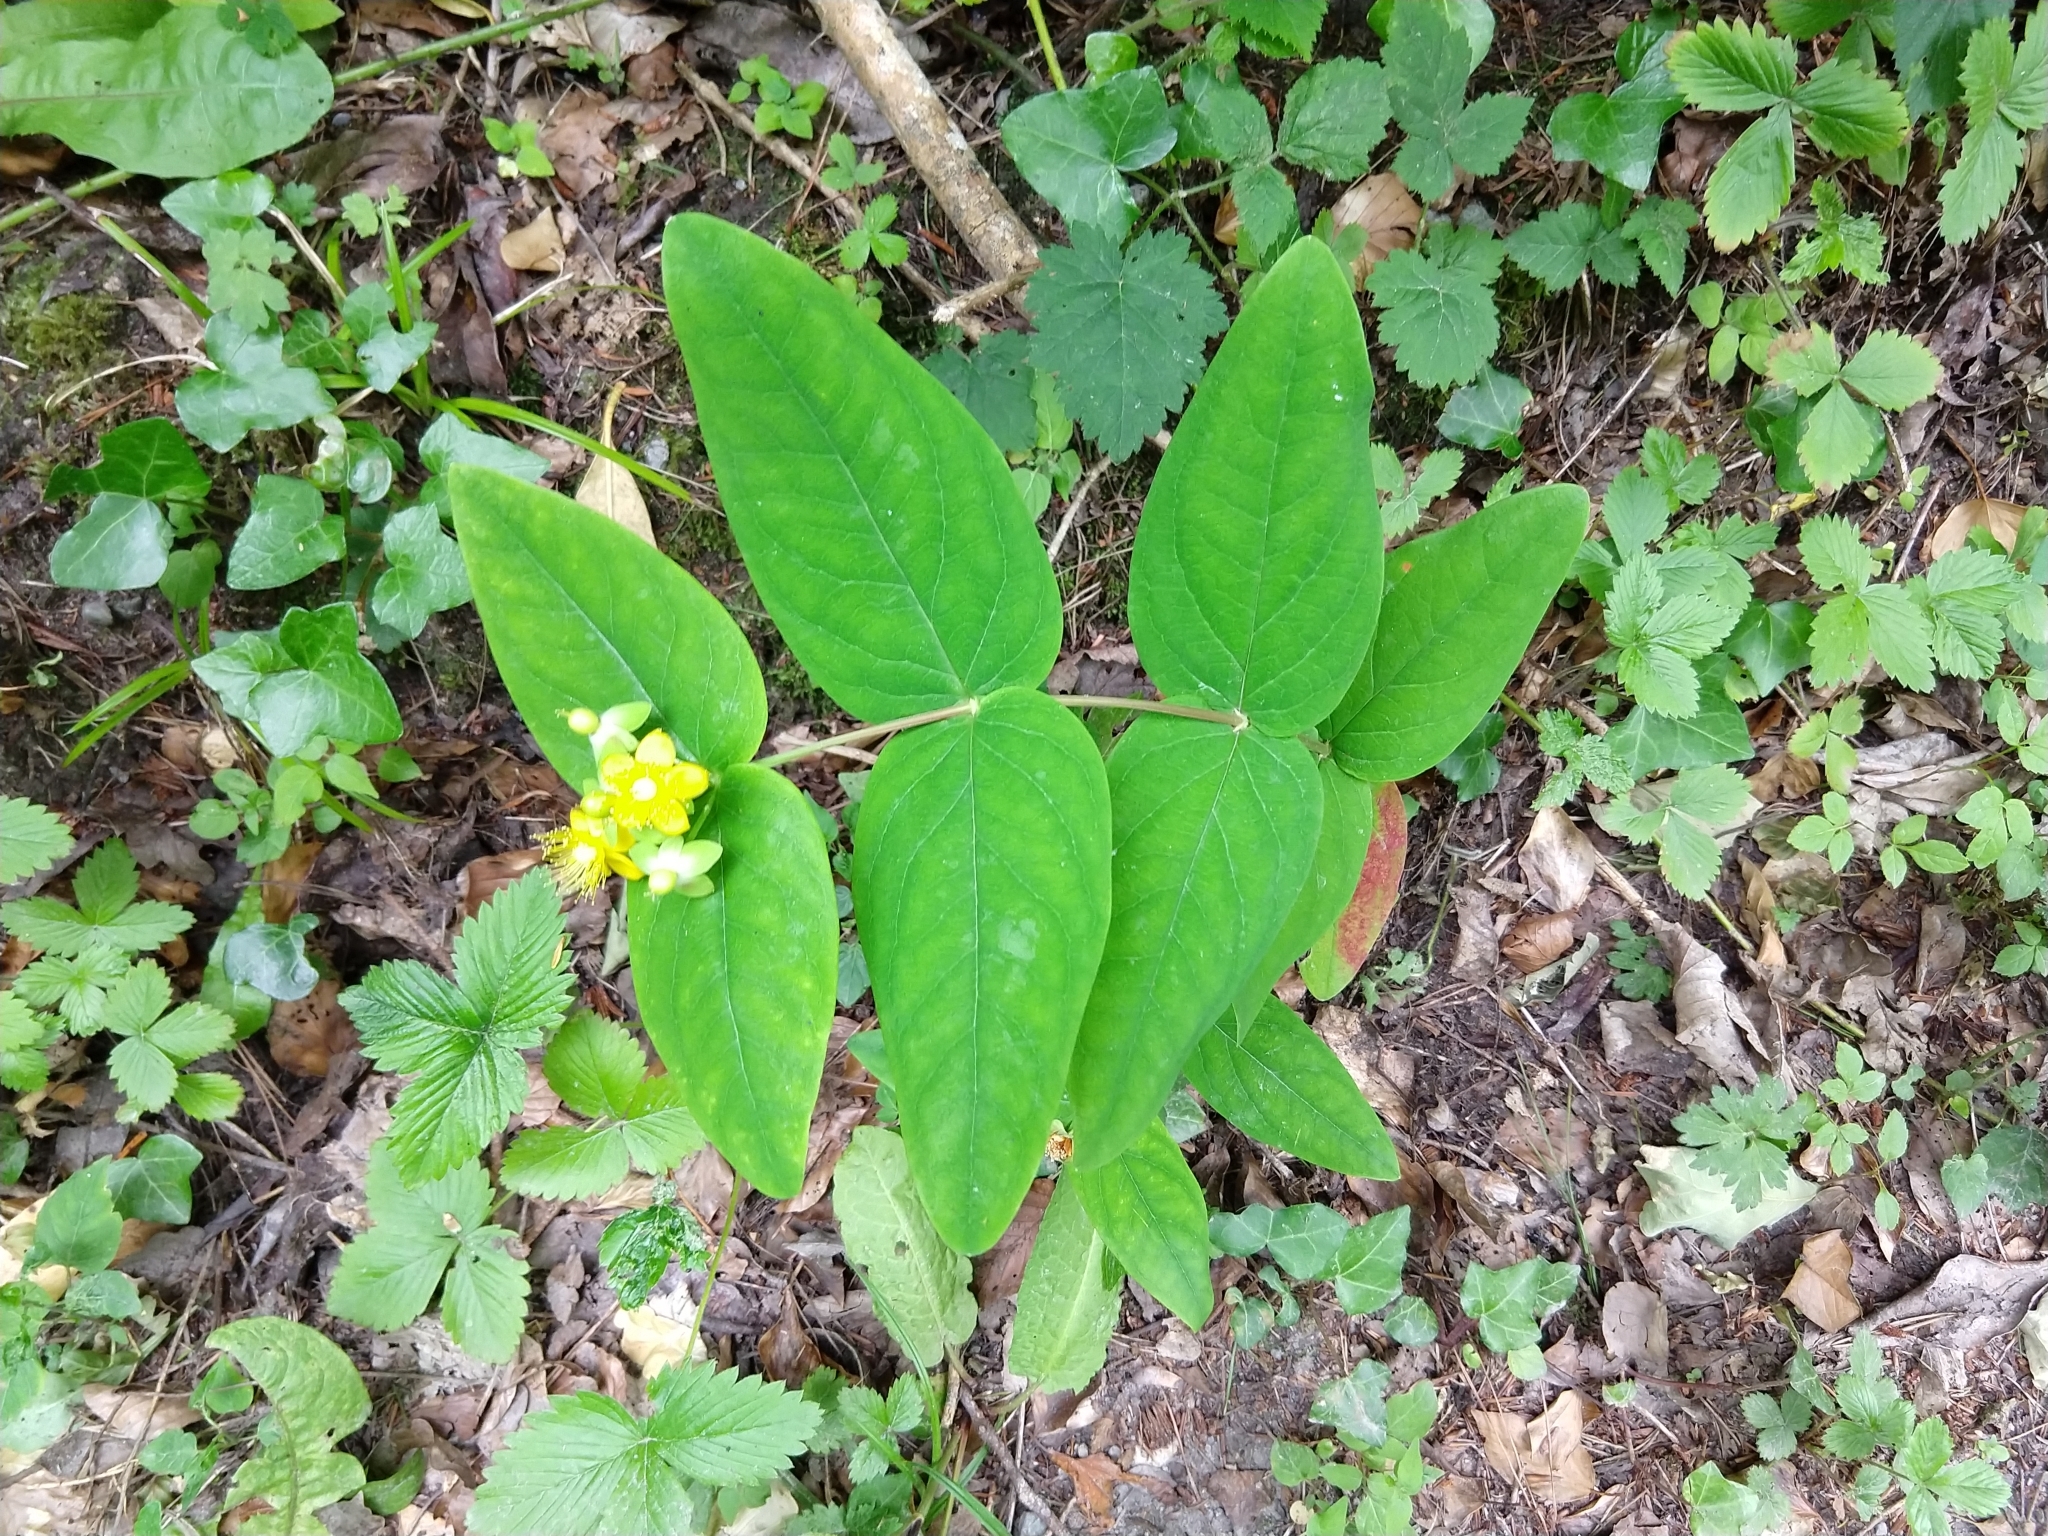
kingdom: Plantae
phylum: Tracheophyta
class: Magnoliopsida
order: Malpighiales
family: Hypericaceae
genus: Hypericum
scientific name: Hypericum androsaemum
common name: Sweet-amber
